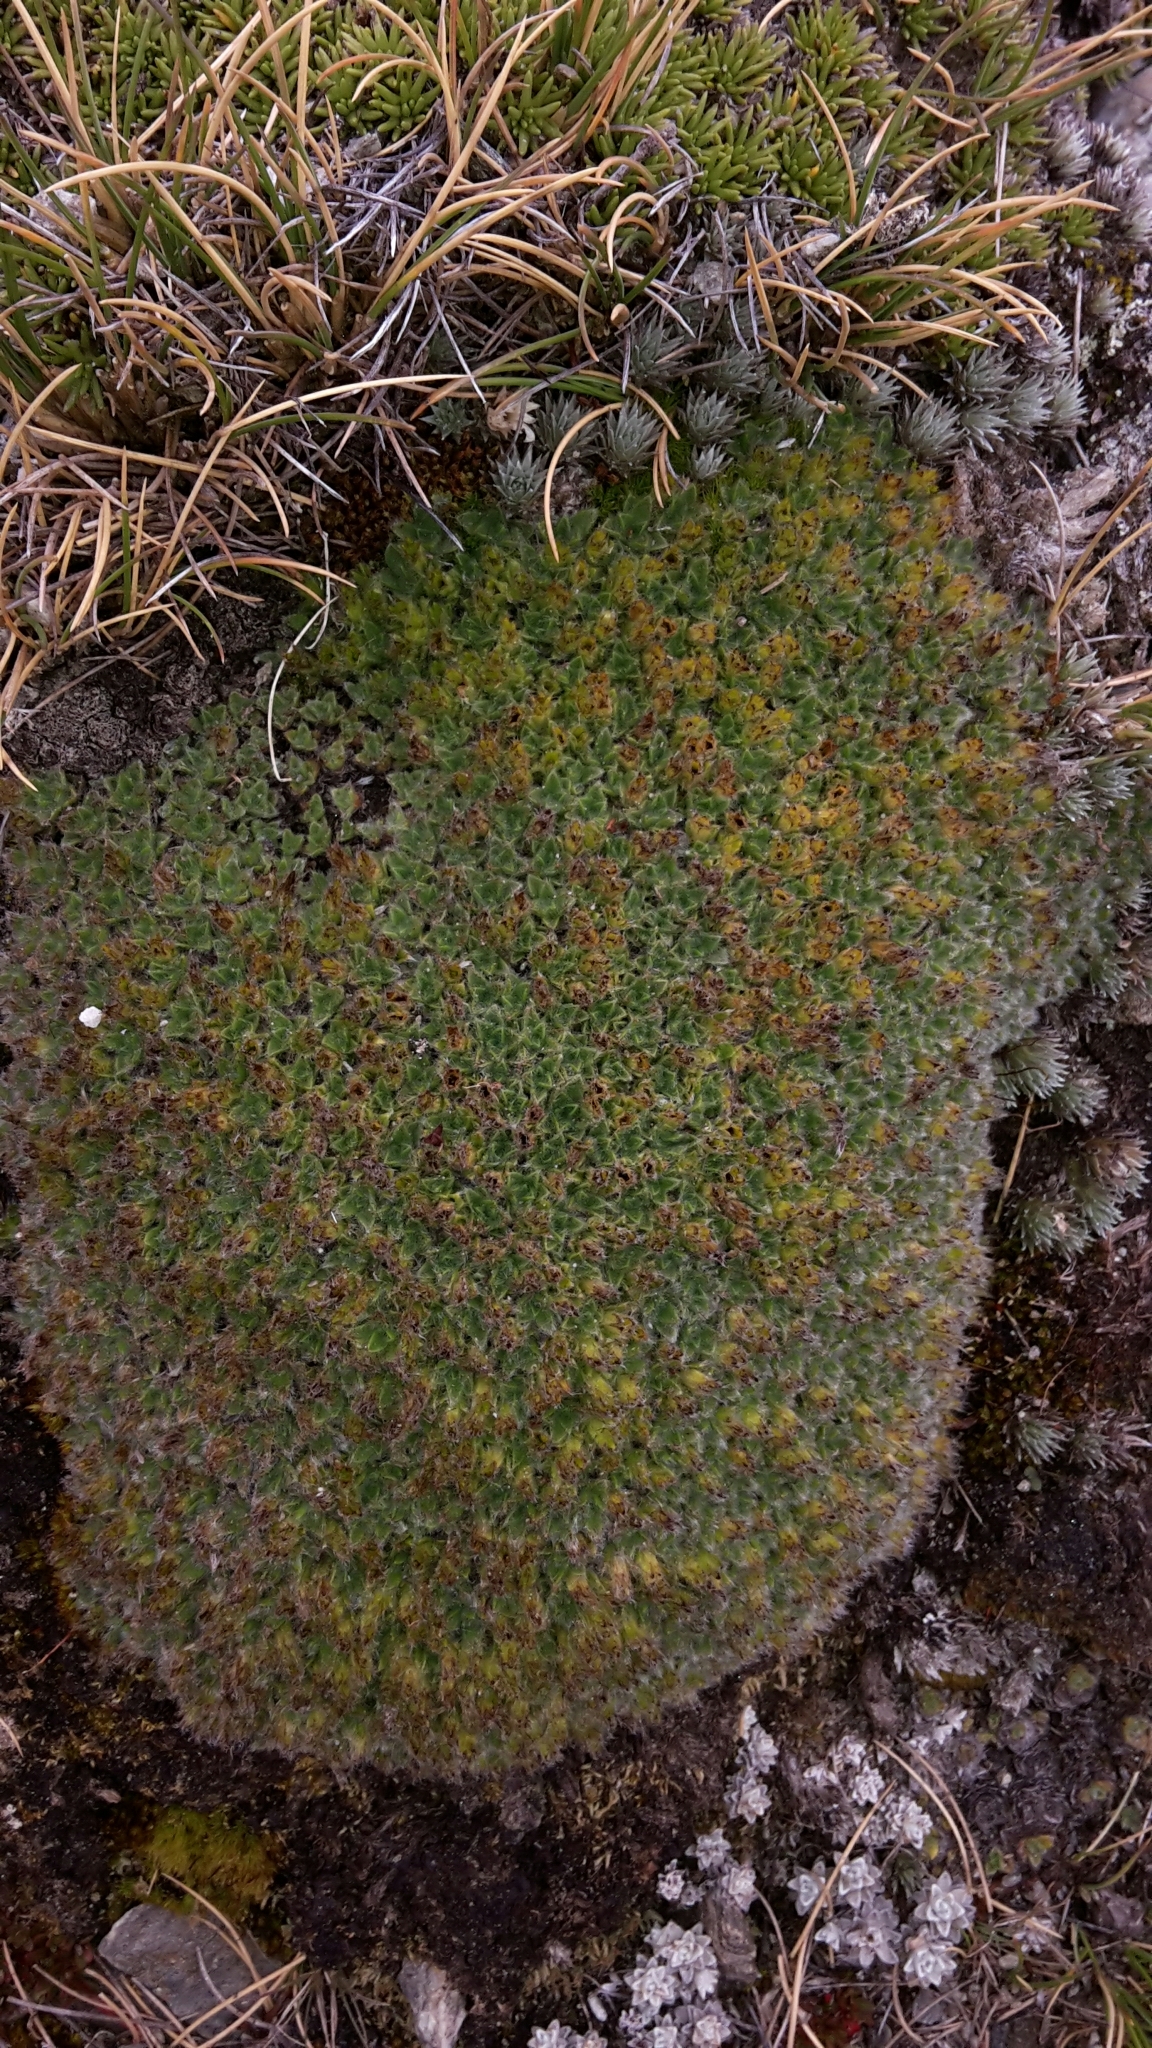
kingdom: Plantae
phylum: Tracheophyta
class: Magnoliopsida
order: Boraginales
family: Boraginaceae
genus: Myosotis
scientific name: Myosotis pulvinaris
